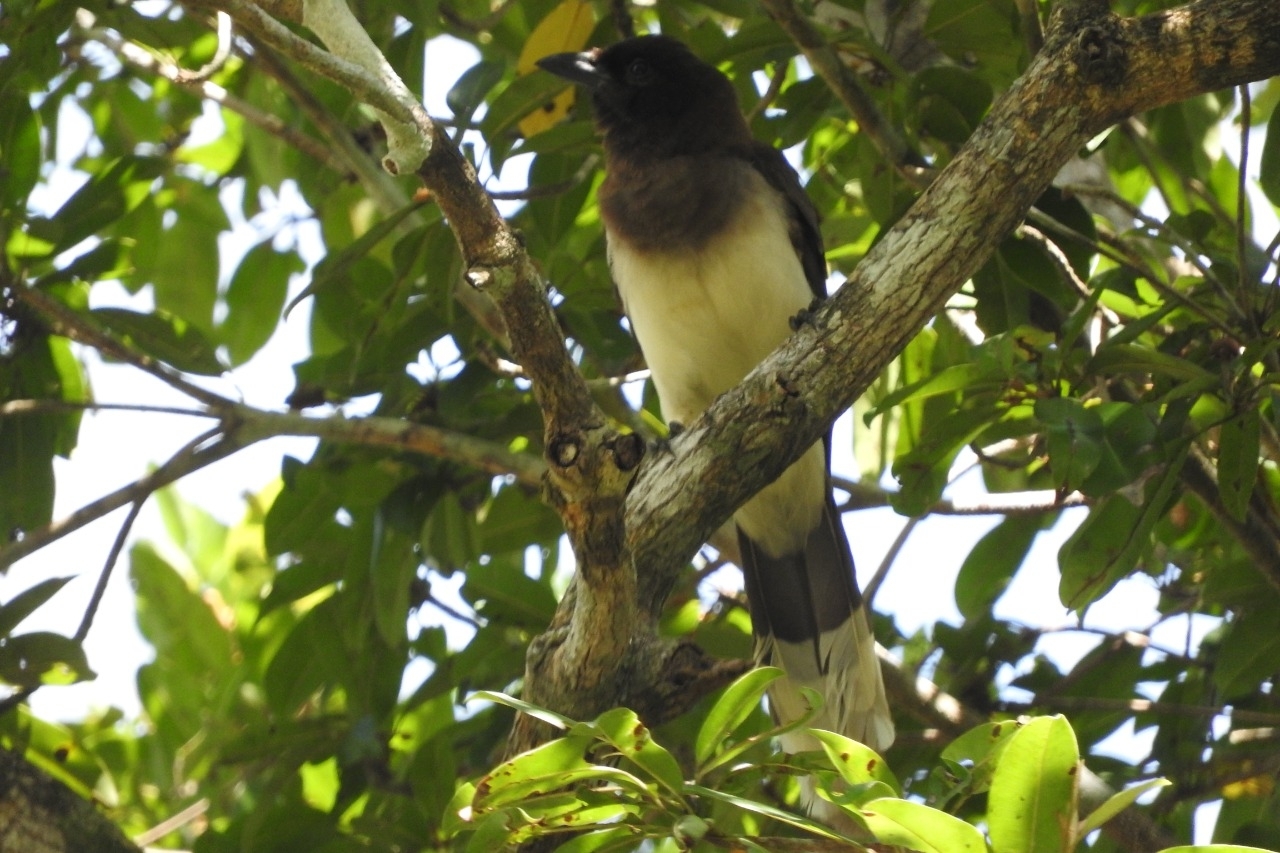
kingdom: Animalia
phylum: Chordata
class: Aves
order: Passeriformes
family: Corvidae
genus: Psilorhinus
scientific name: Psilorhinus morio
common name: Brown jay
